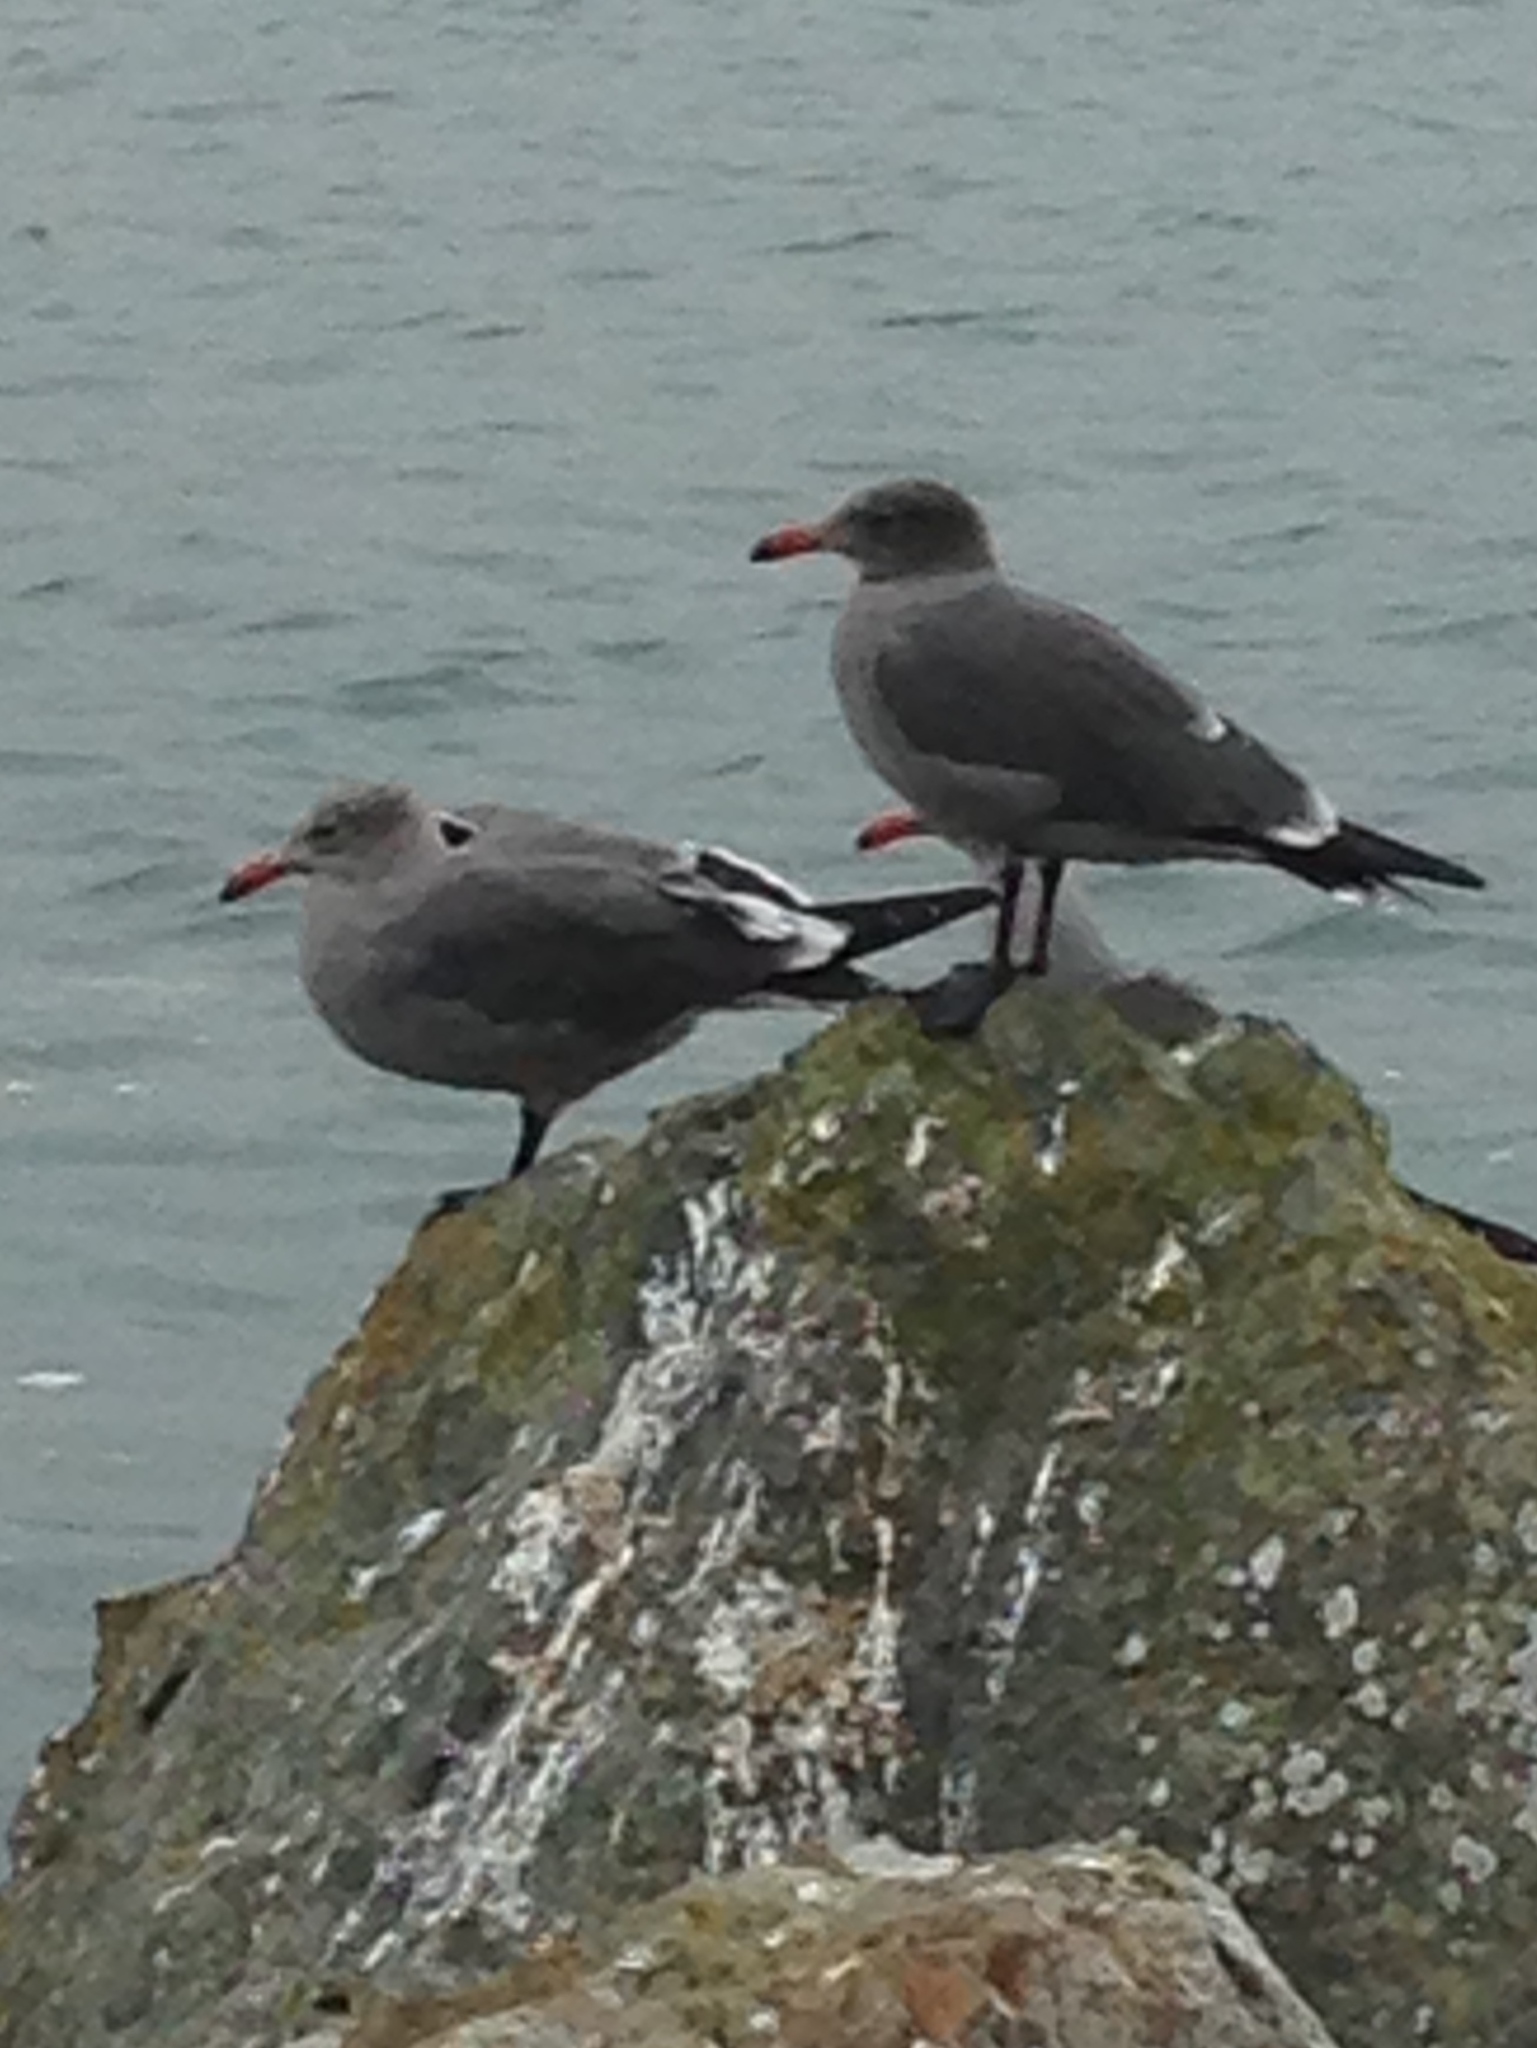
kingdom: Animalia
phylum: Chordata
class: Aves
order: Charadriiformes
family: Laridae
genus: Larus
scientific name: Larus heermanni
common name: Heermann's gull
